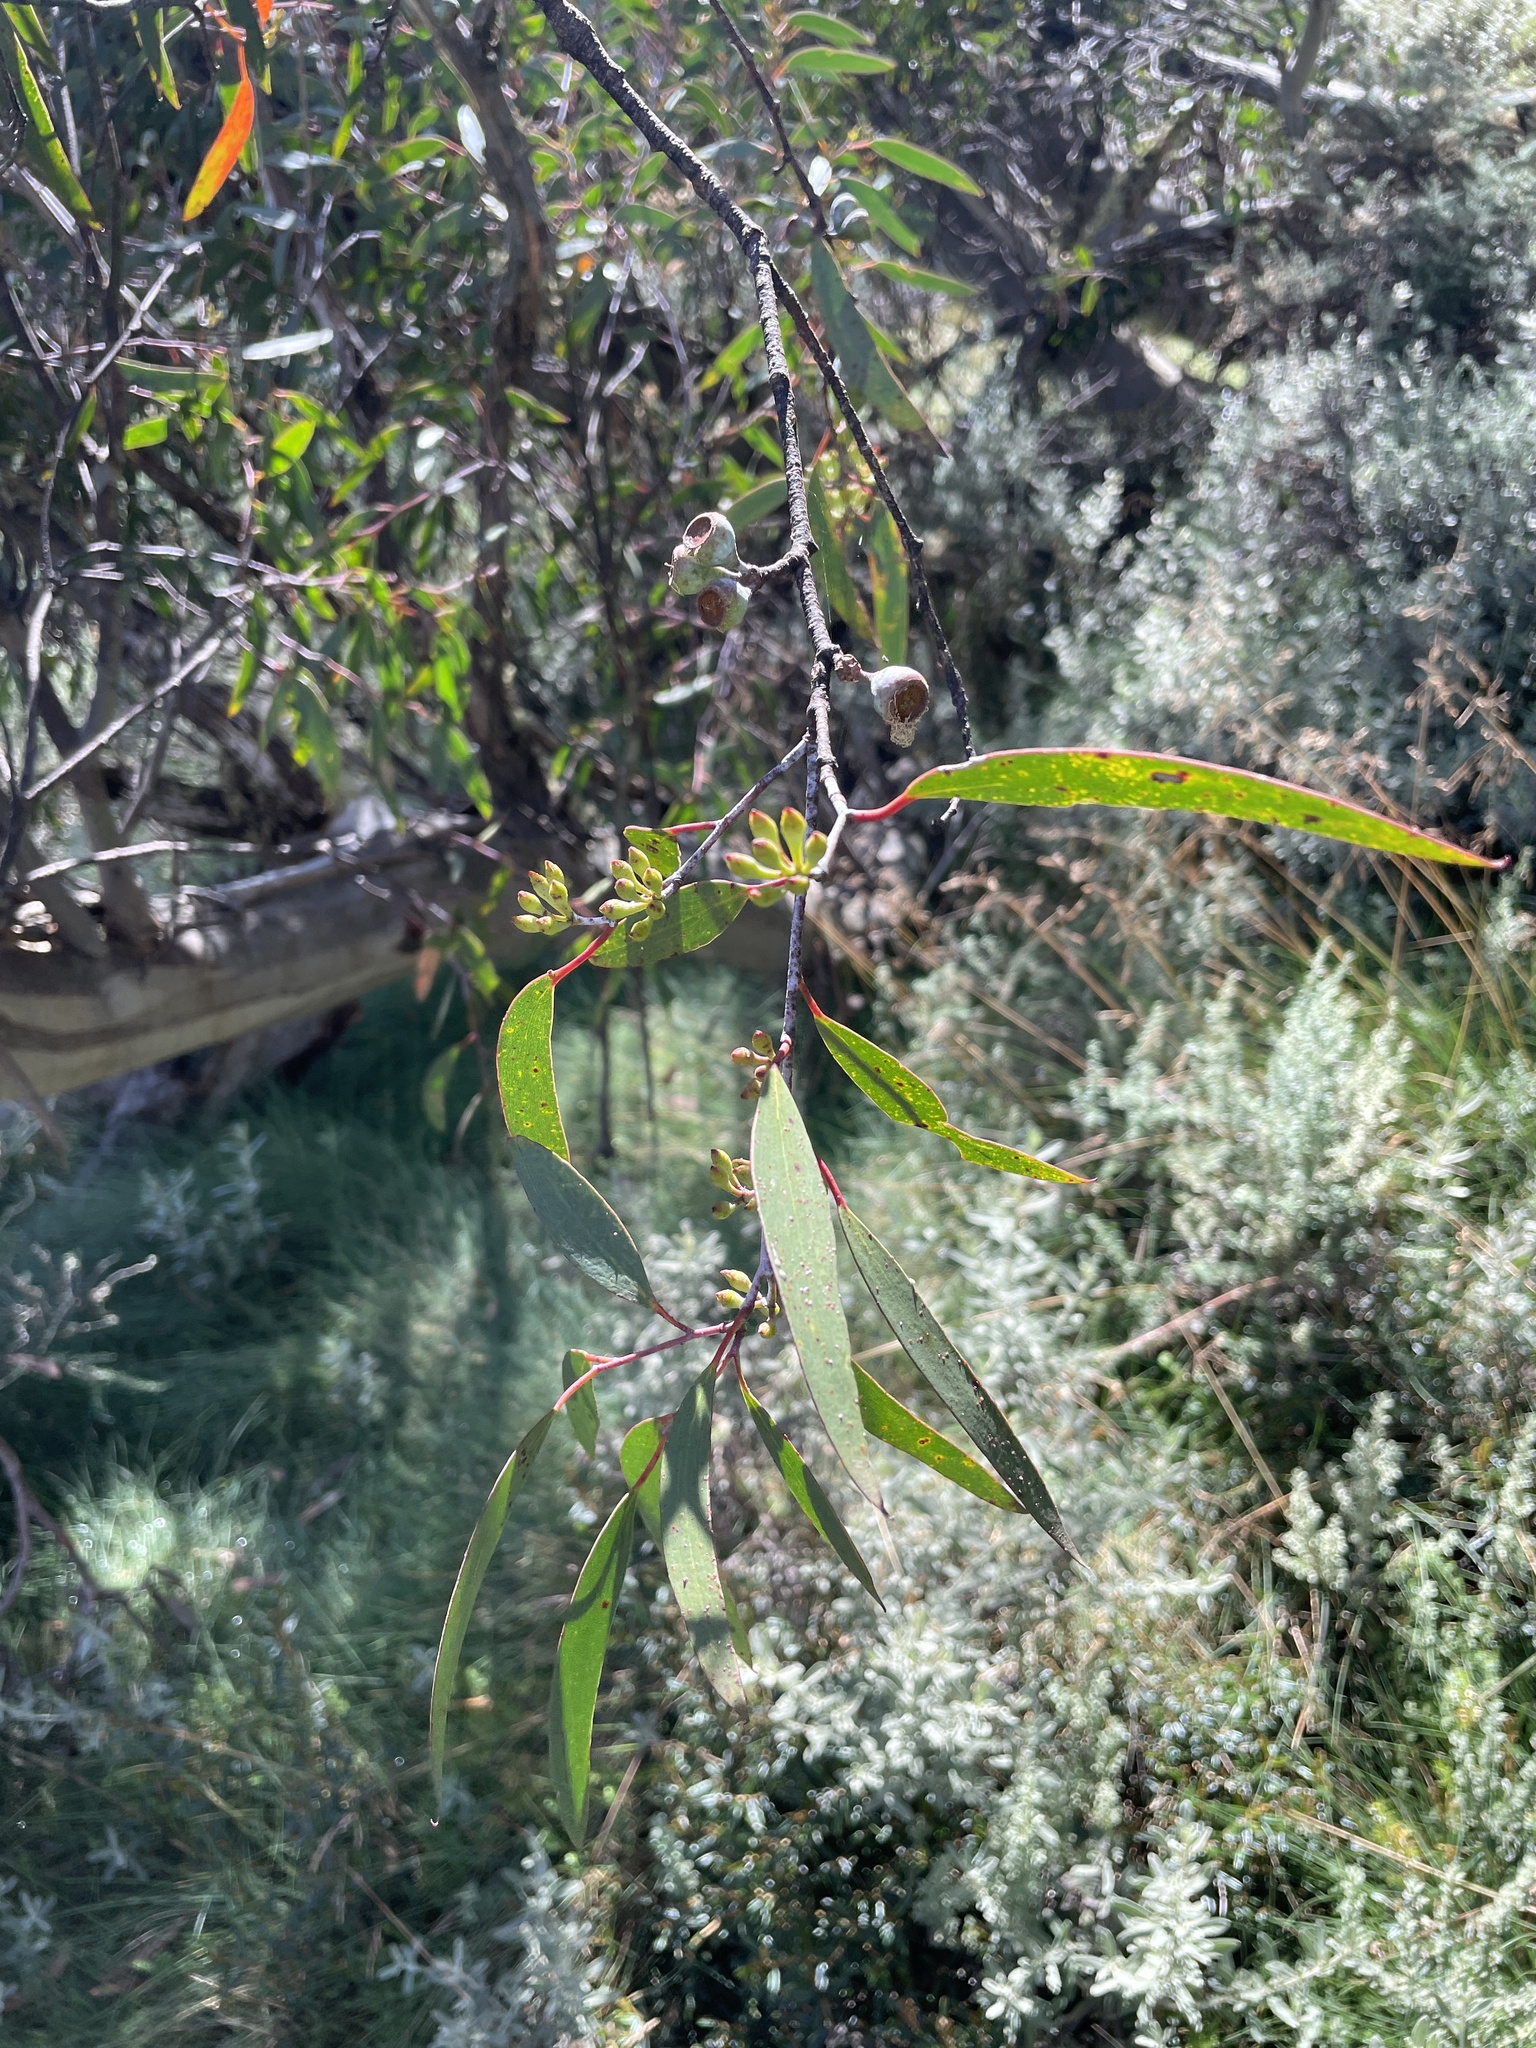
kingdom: Plantae
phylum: Tracheophyta
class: Magnoliopsida
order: Myrtales
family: Myrtaceae
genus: Eucalyptus
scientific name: Eucalyptus pauciflora
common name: Snow gum
